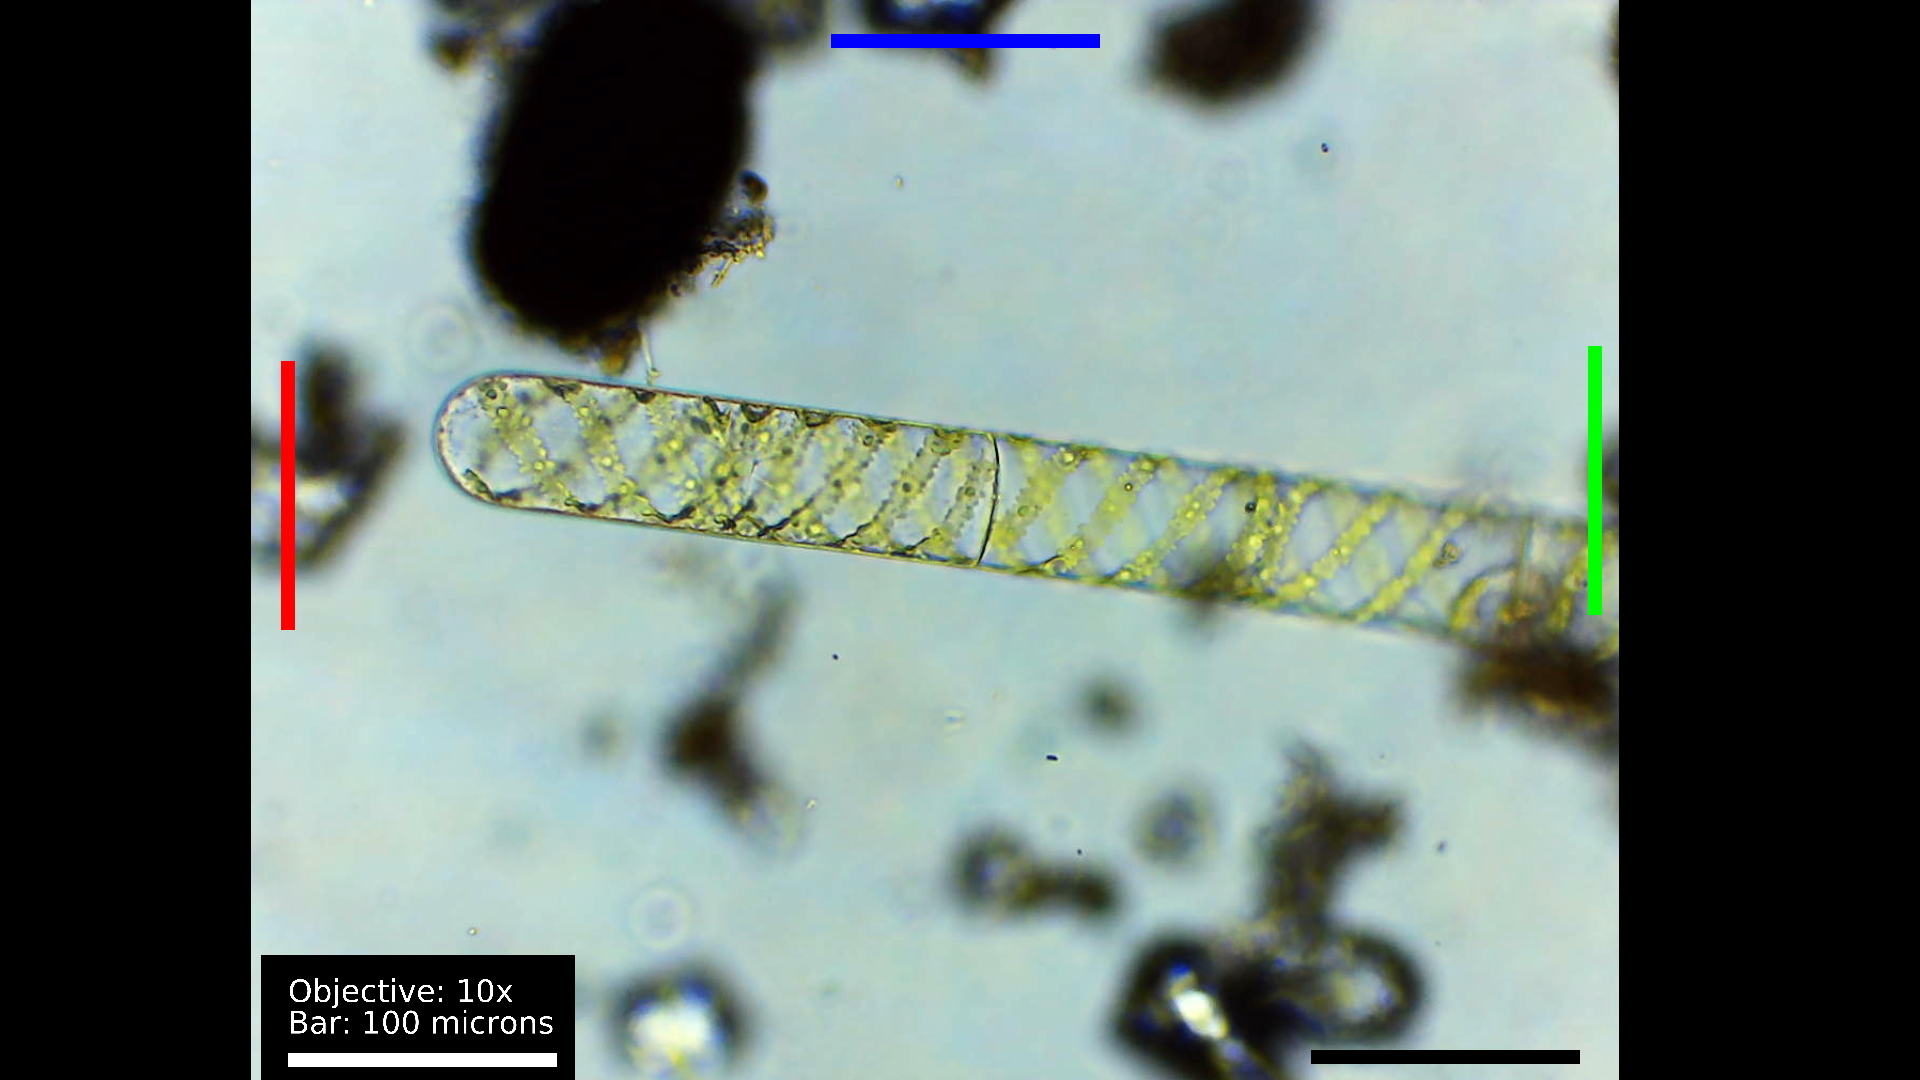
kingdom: Plantae
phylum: Charophyta
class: Zygnematophyceae
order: Zygnematales
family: Zygnemataceae
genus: Spirogyra
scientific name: Spirogyra
